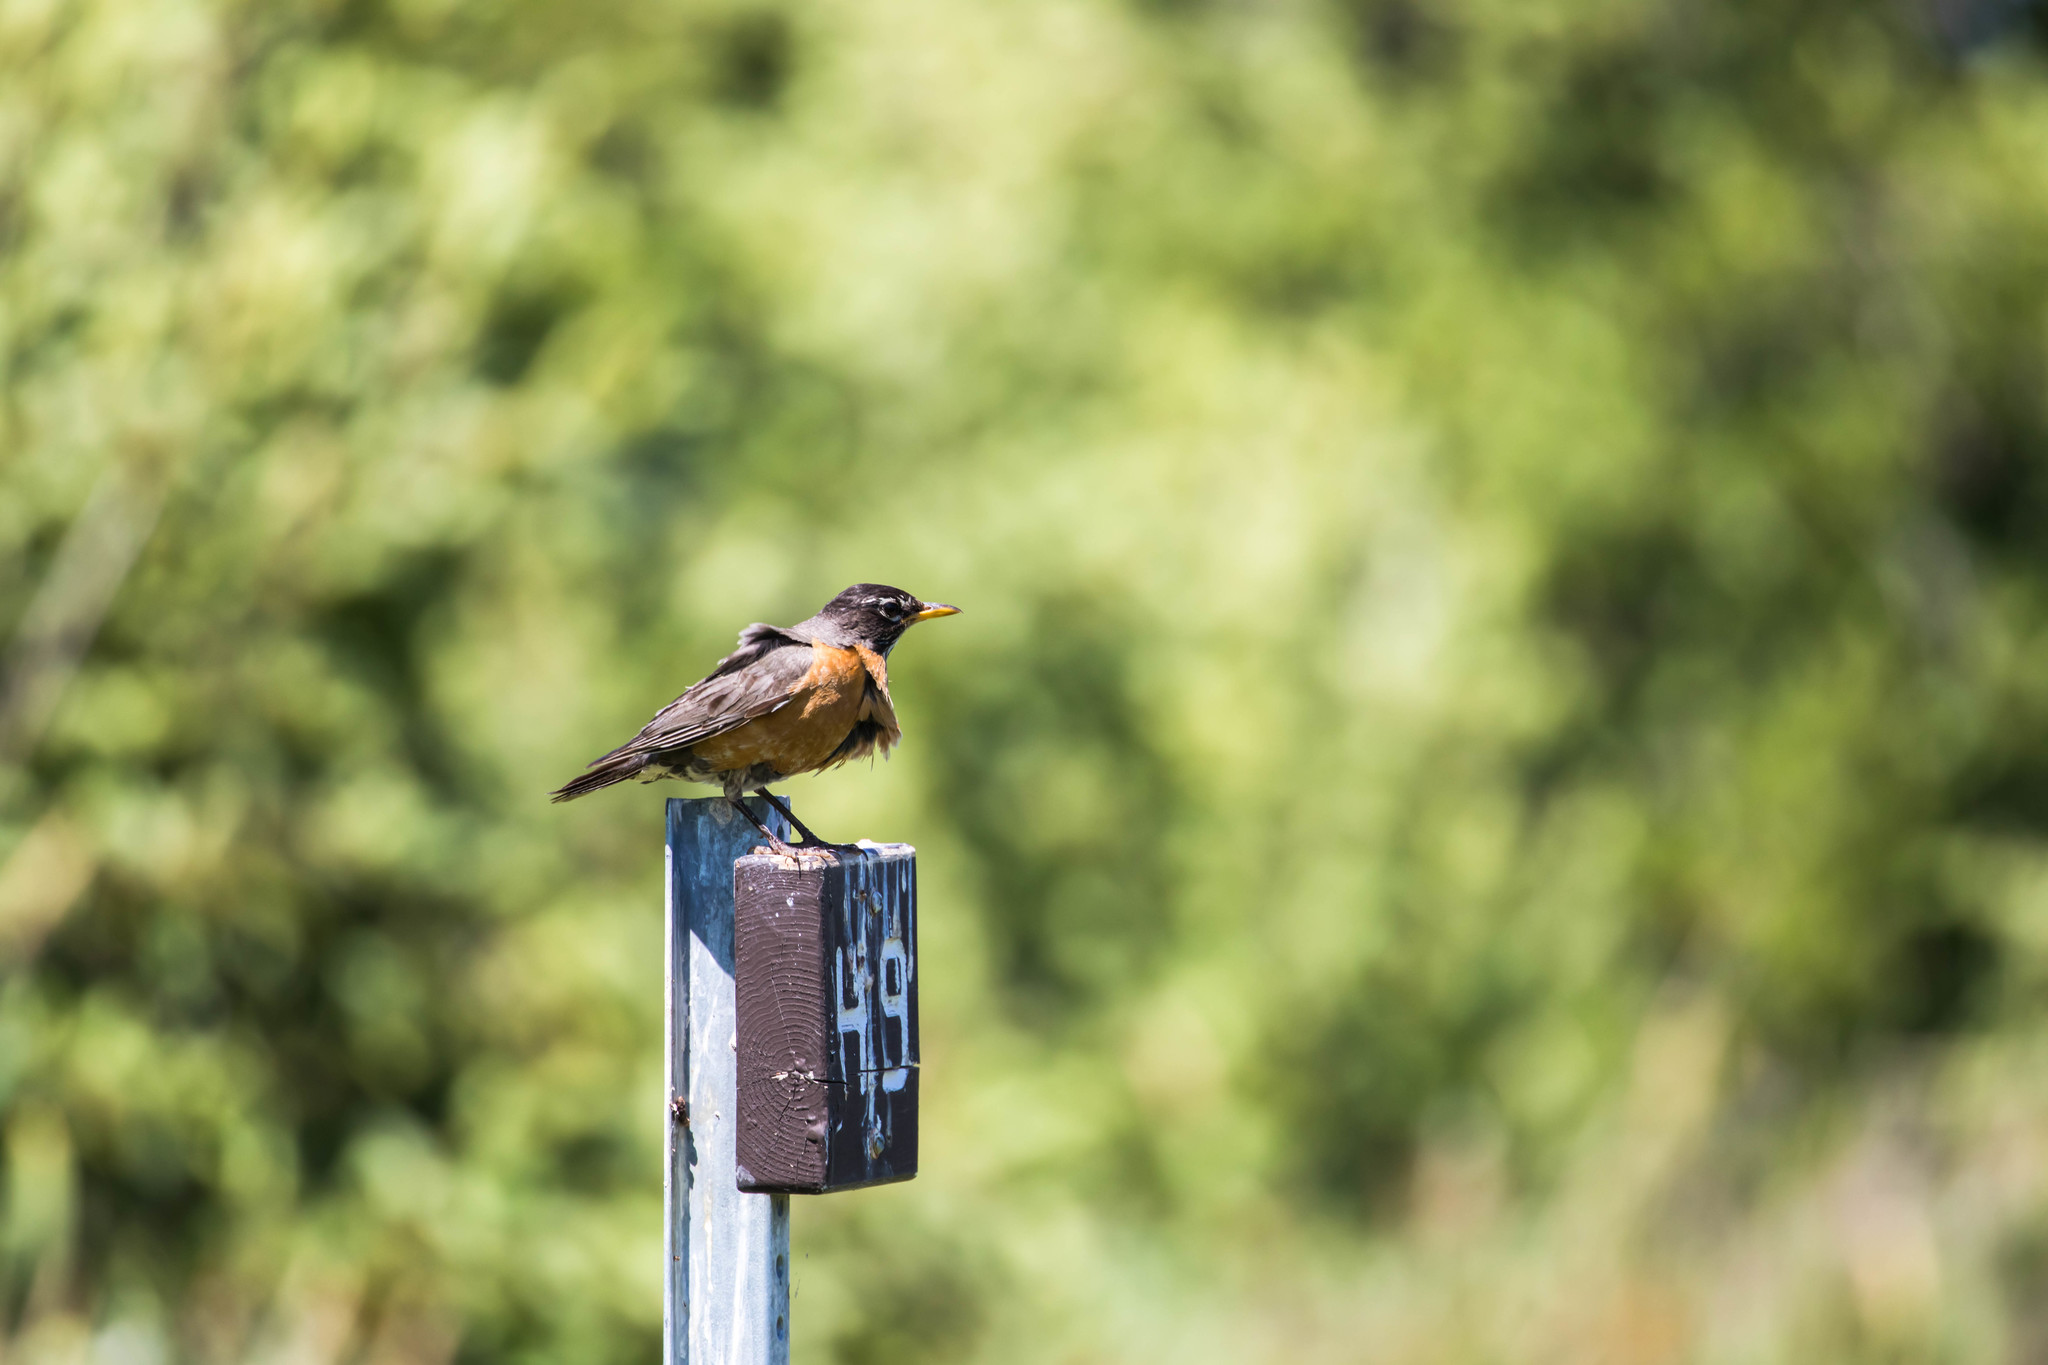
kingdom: Animalia
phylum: Chordata
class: Aves
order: Passeriformes
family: Turdidae
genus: Turdus
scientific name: Turdus migratorius
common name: American robin
